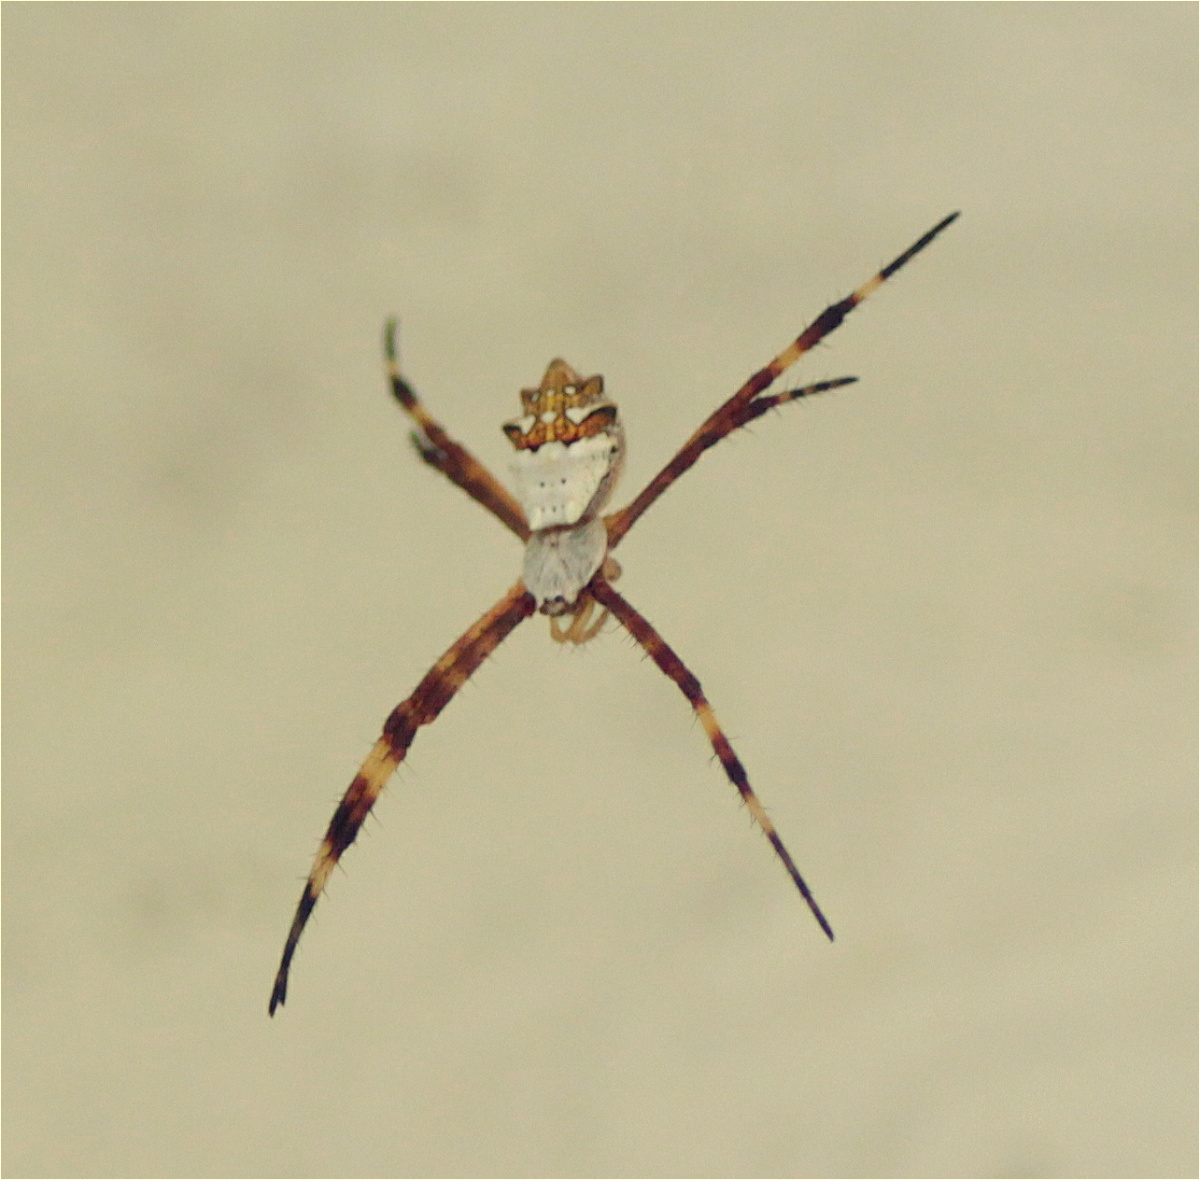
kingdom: Animalia
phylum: Arthropoda
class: Arachnida
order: Araneae
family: Araneidae
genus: Argiope
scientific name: Argiope argentata
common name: Orb weavers
